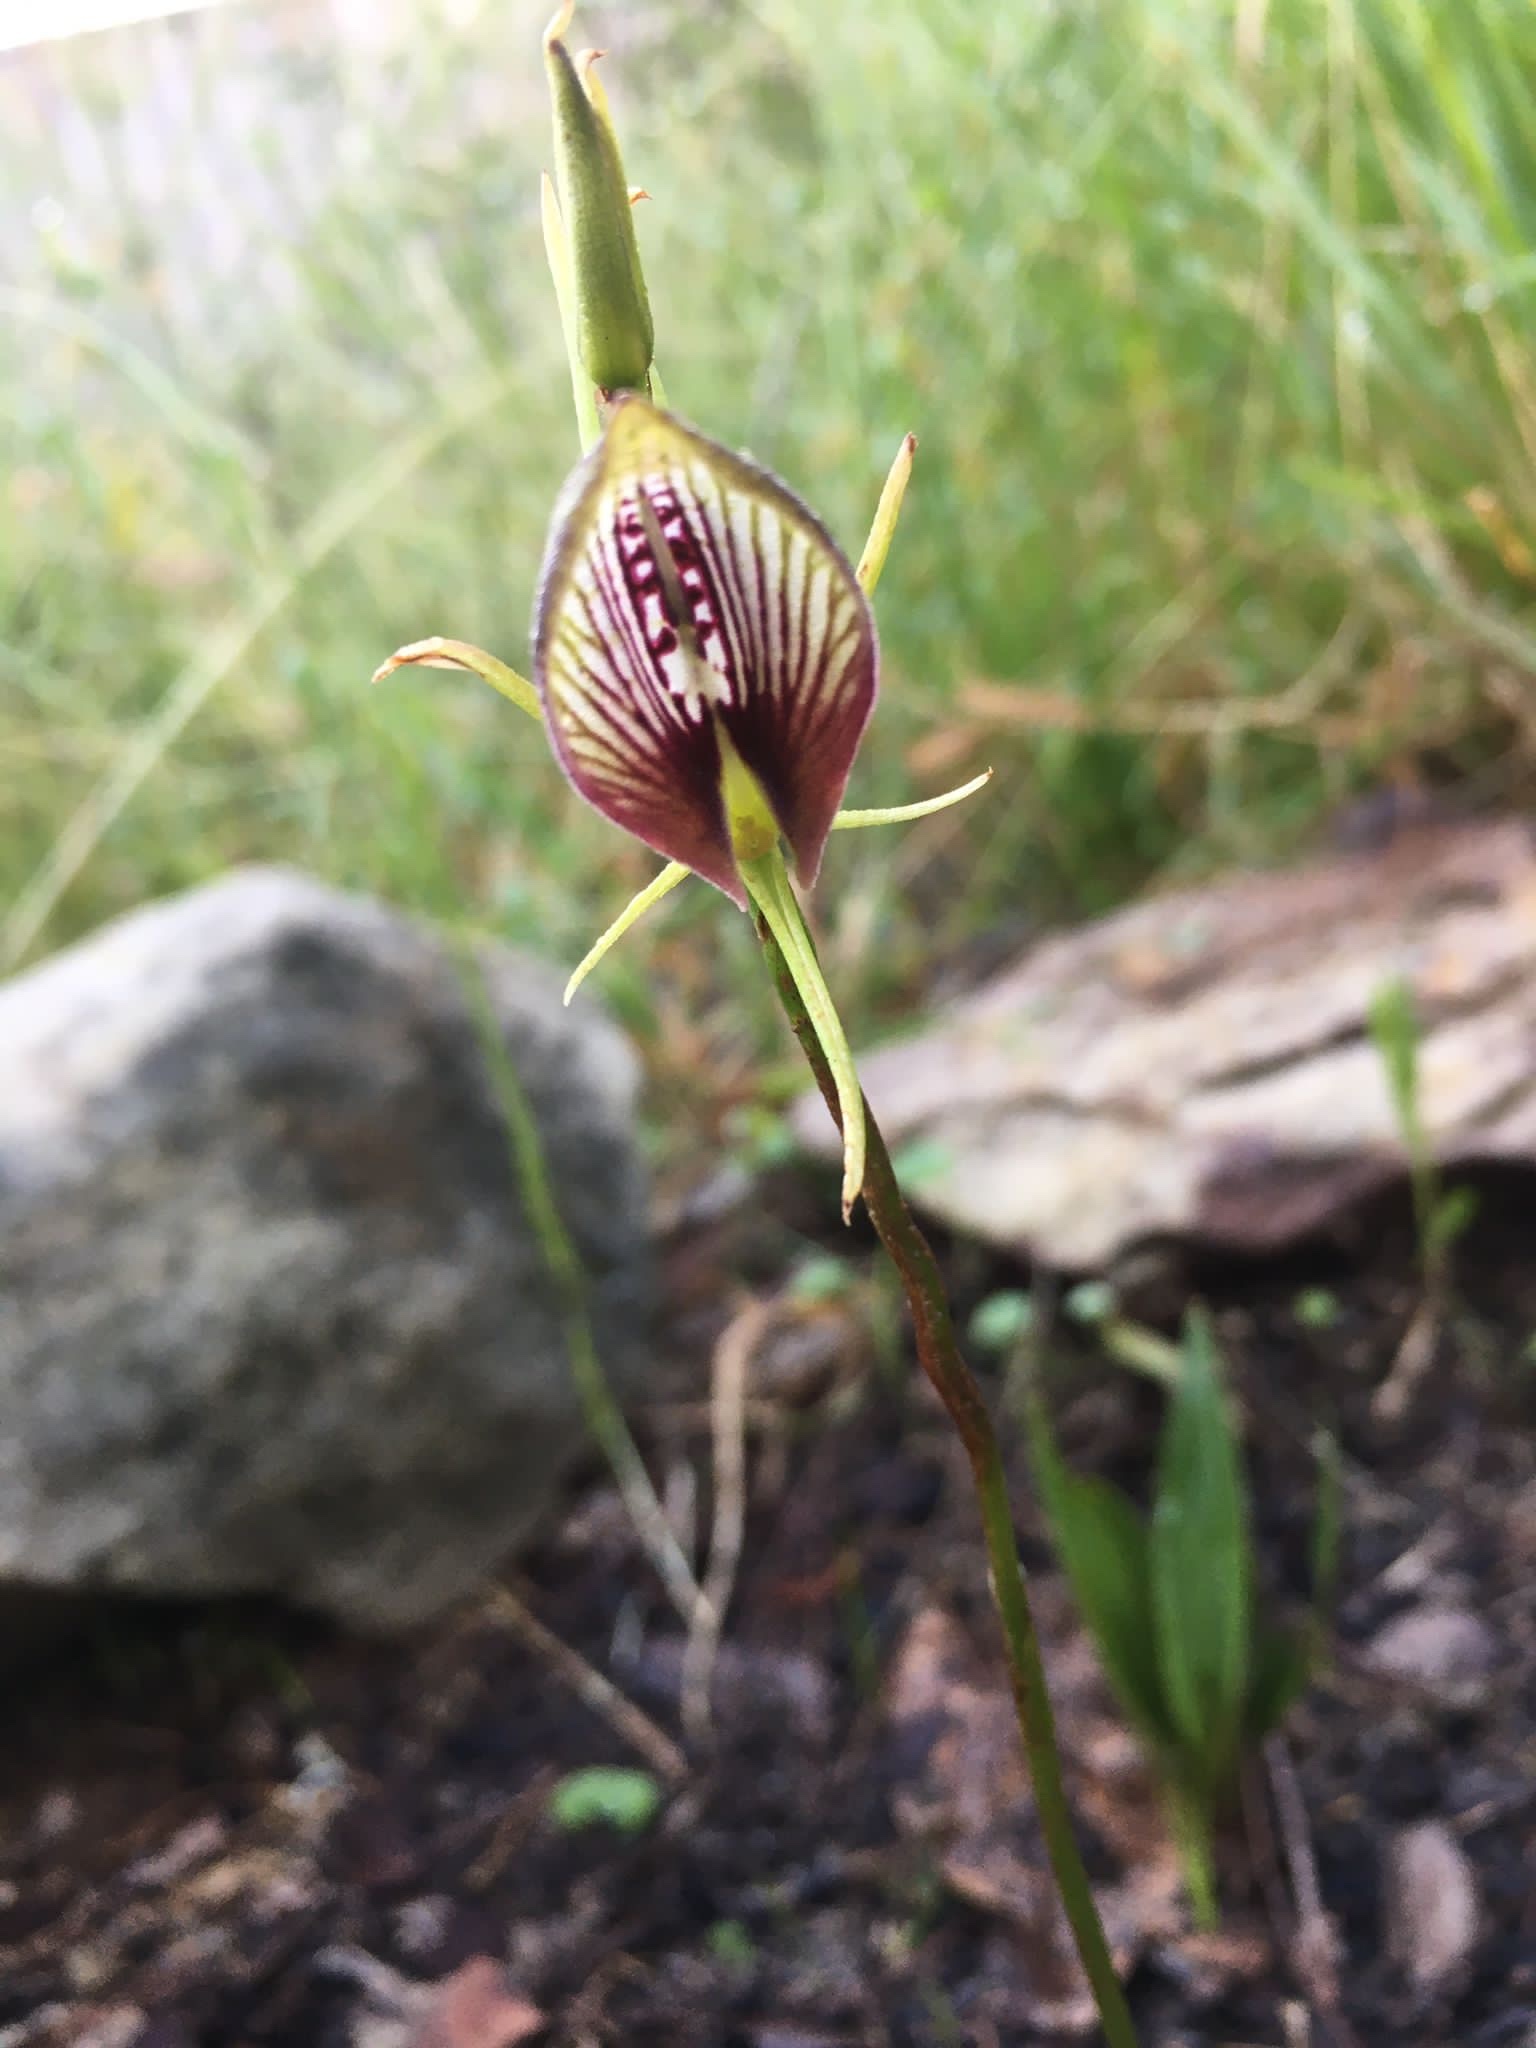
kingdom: Plantae
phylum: Tracheophyta
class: Liliopsida
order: Asparagales
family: Orchidaceae
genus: Cryptostylis
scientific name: Cryptostylis erecta
